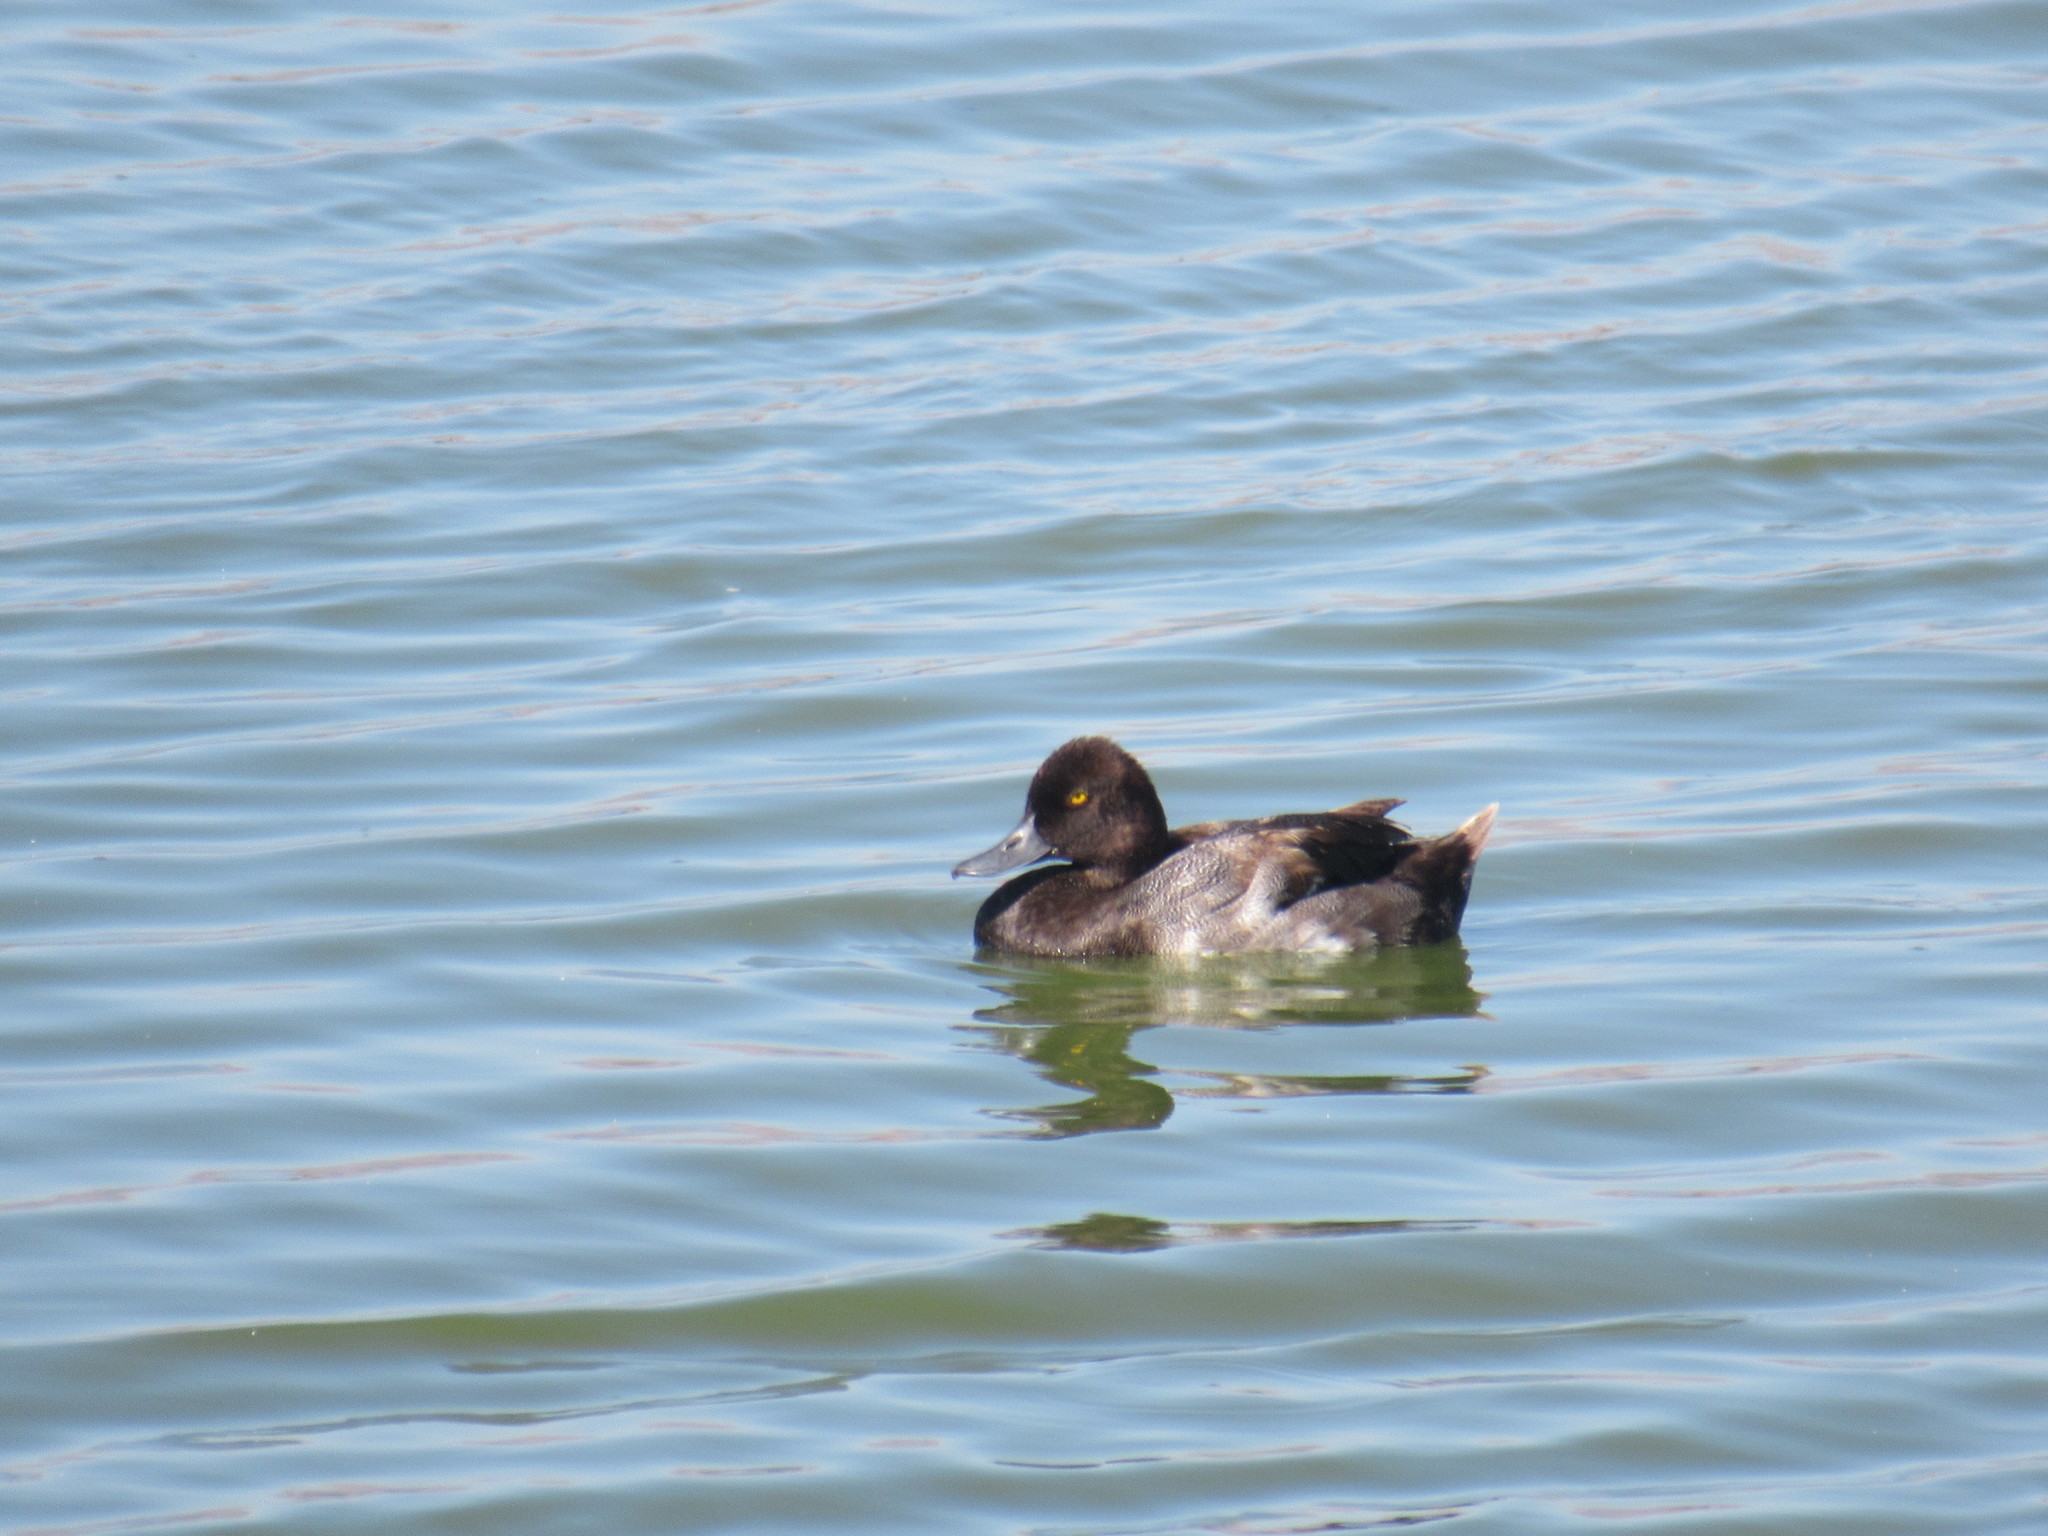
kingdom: Animalia
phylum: Chordata
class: Aves
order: Anseriformes
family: Anatidae
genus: Aythya
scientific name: Aythya affinis
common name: Lesser scaup
